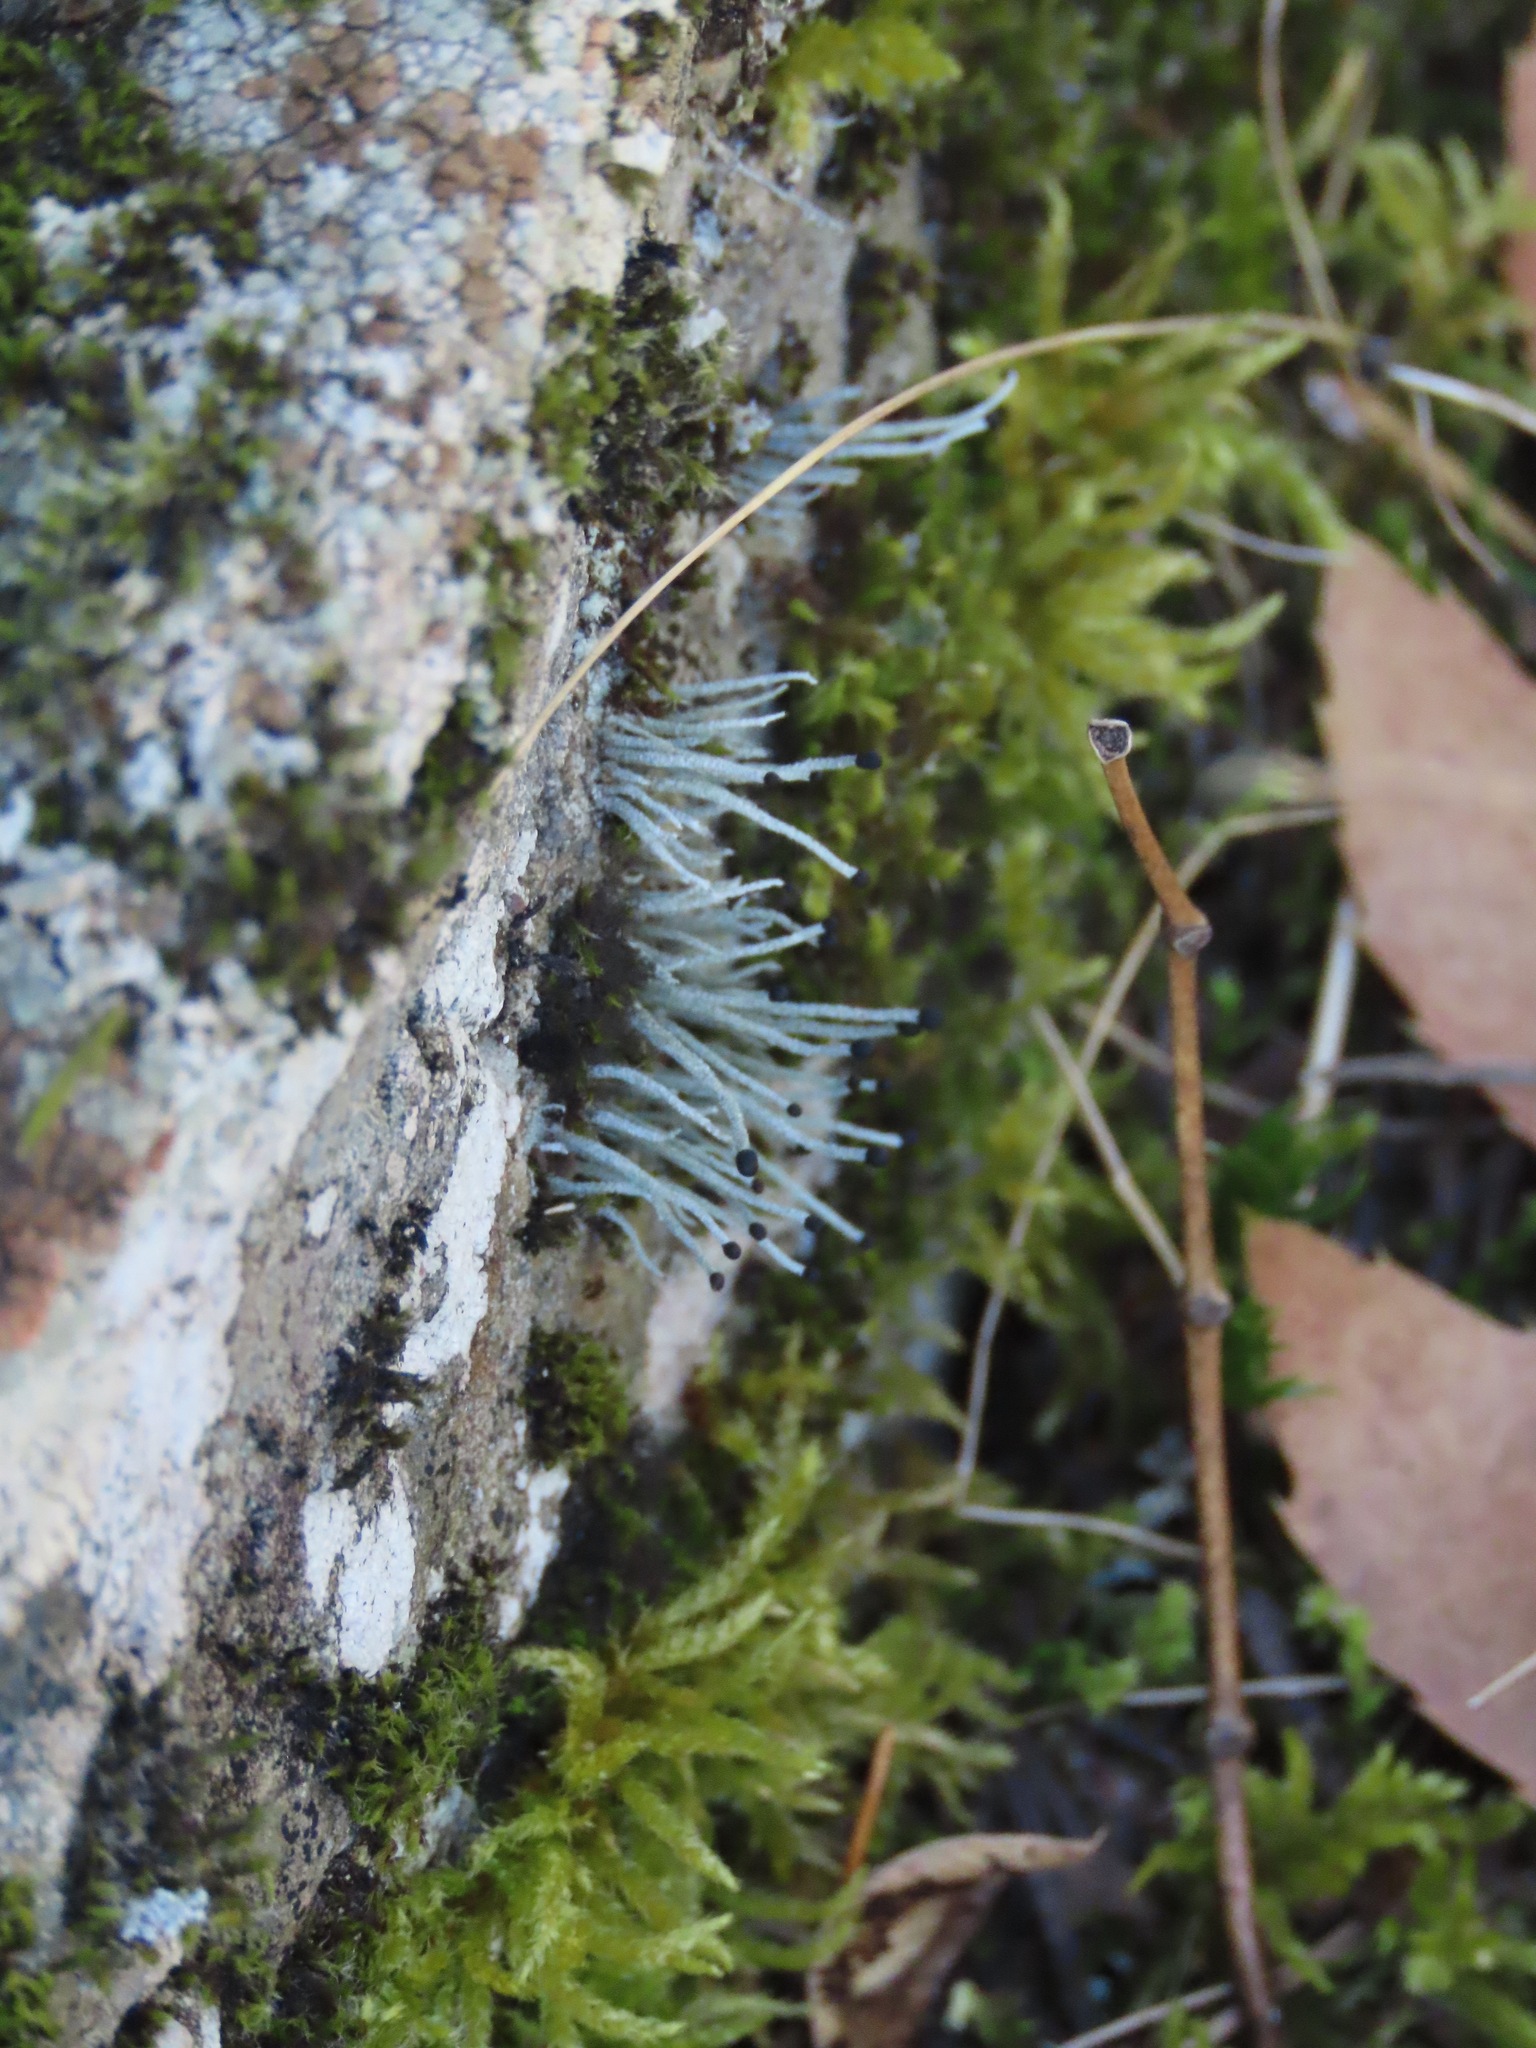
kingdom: Fungi
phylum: Ascomycota
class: Lecanoromycetes
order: Lecanorales
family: Cladoniaceae
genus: Pilophorus
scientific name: Pilophorus acicularis
